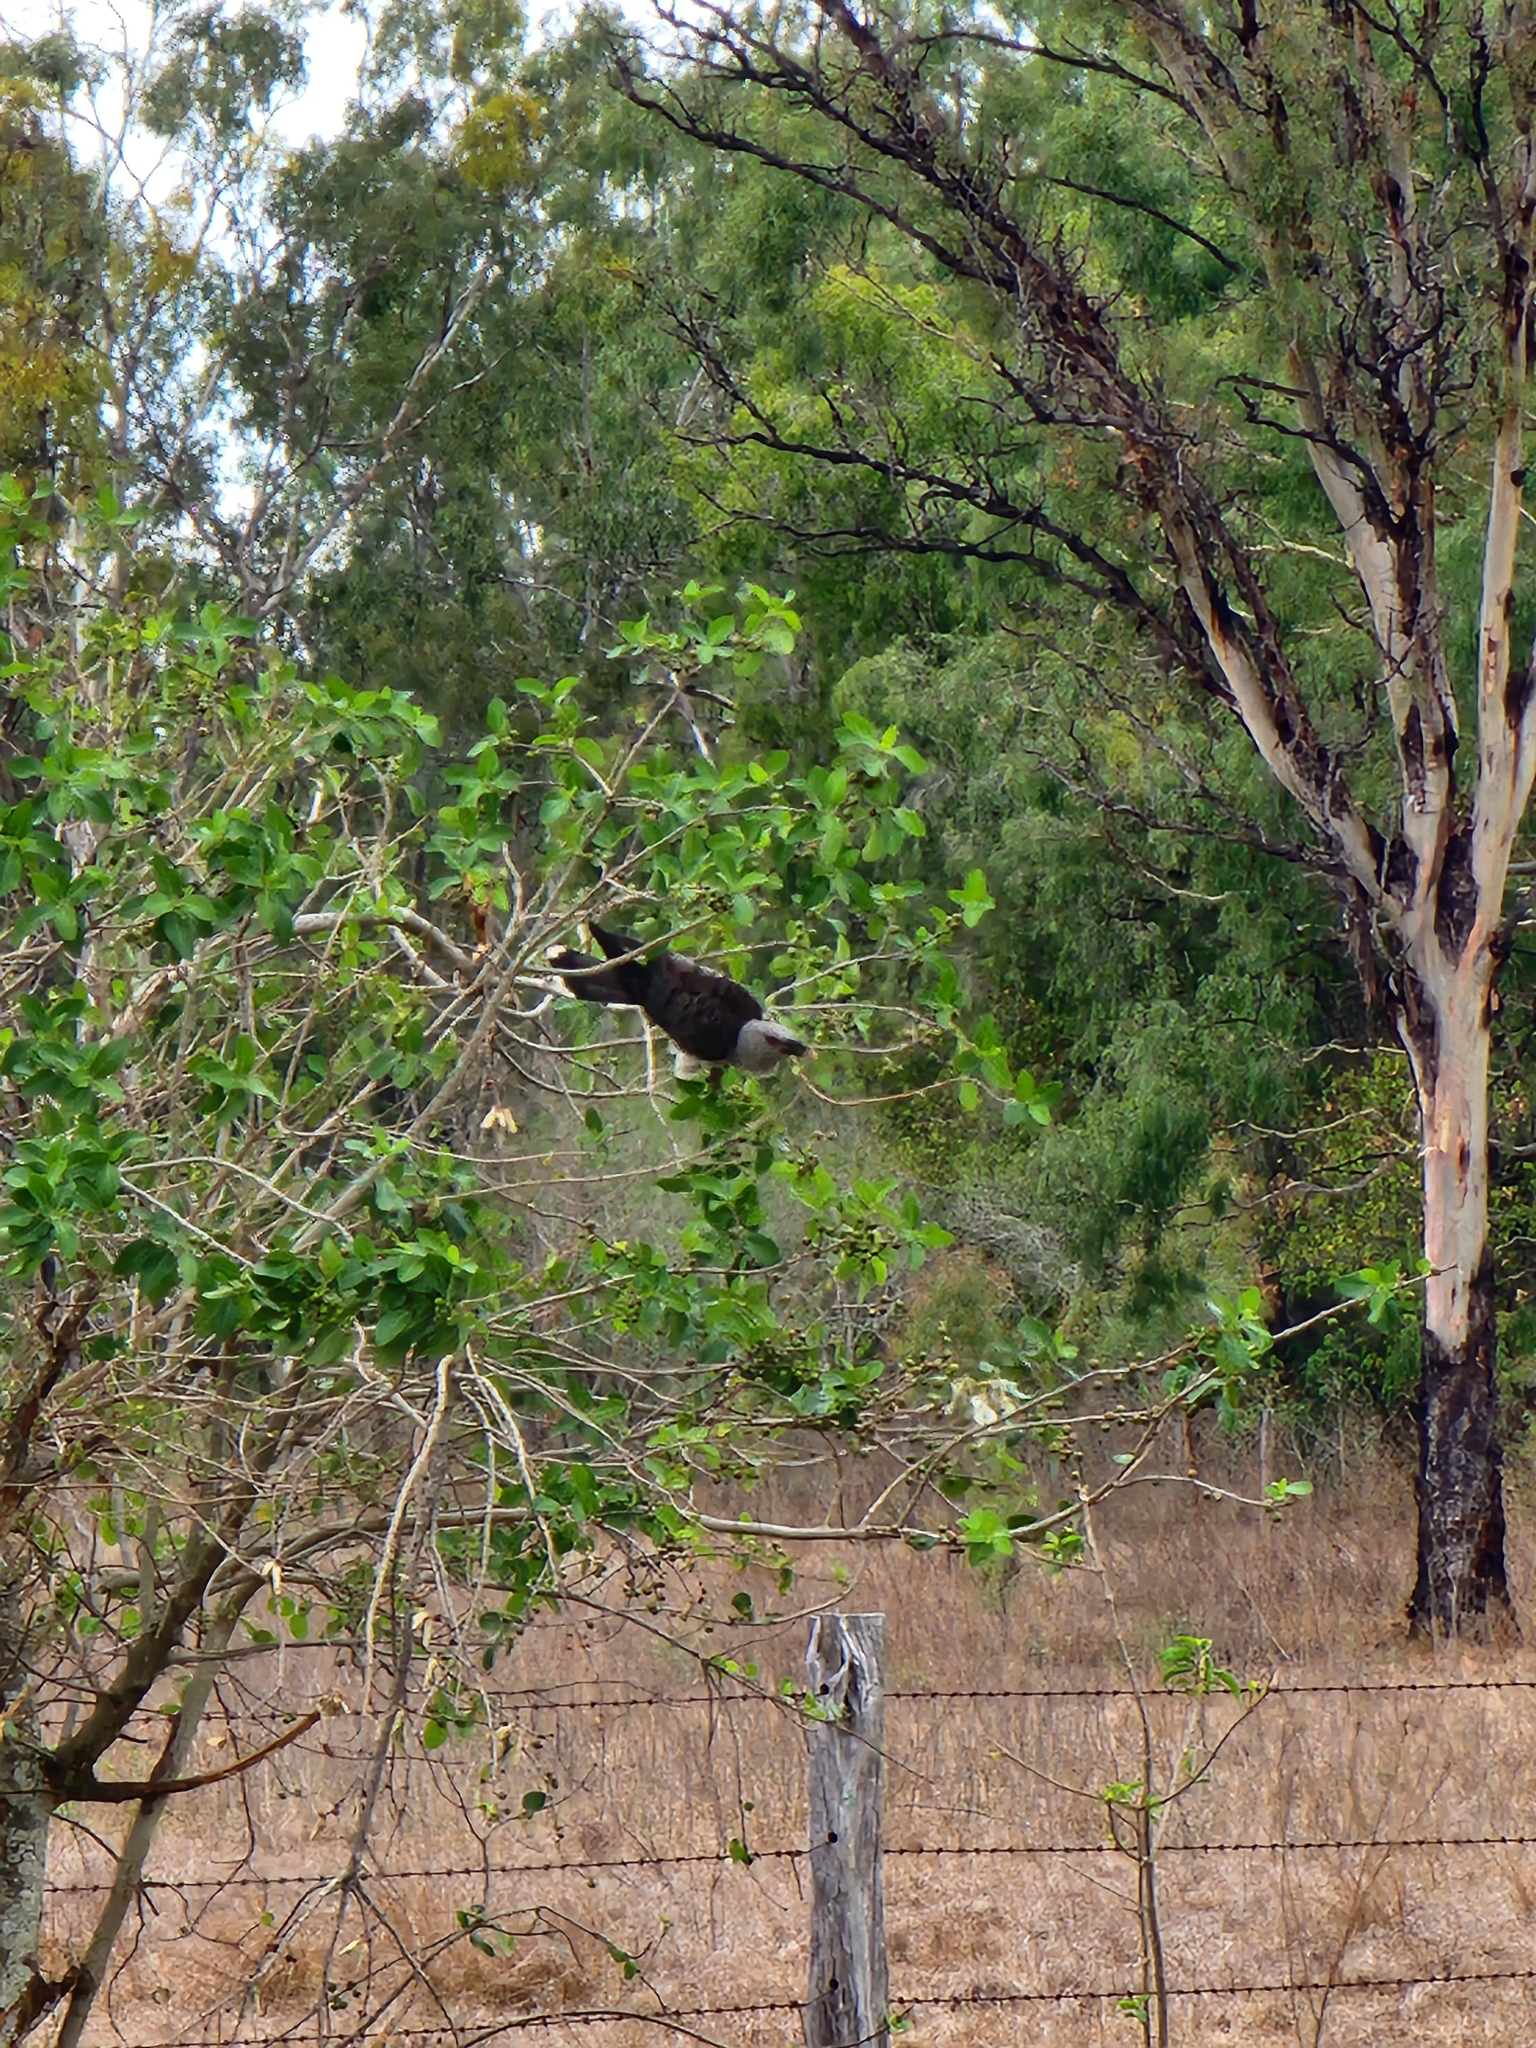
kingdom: Animalia
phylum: Chordata
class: Aves
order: Cuculiformes
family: Cuculidae
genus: Scythrops
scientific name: Scythrops novaehollandiae
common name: Channel-billed cuckoo
